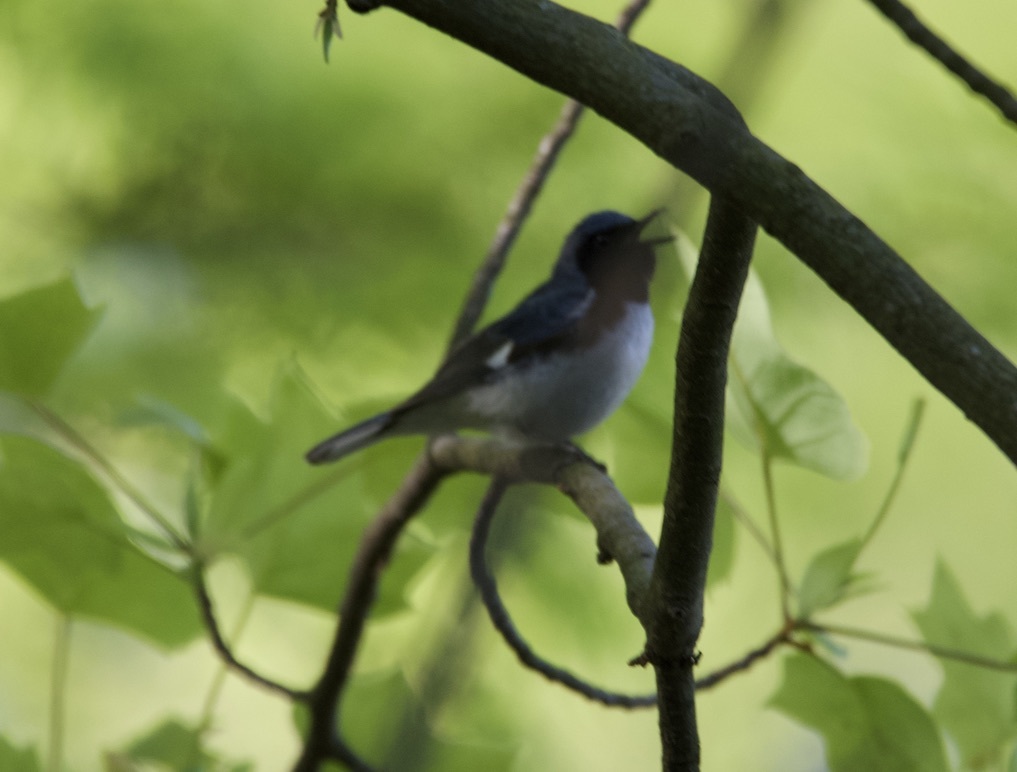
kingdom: Animalia
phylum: Chordata
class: Aves
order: Passeriformes
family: Parulidae
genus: Setophaga
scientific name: Setophaga caerulescens
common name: Black-throated blue warbler
